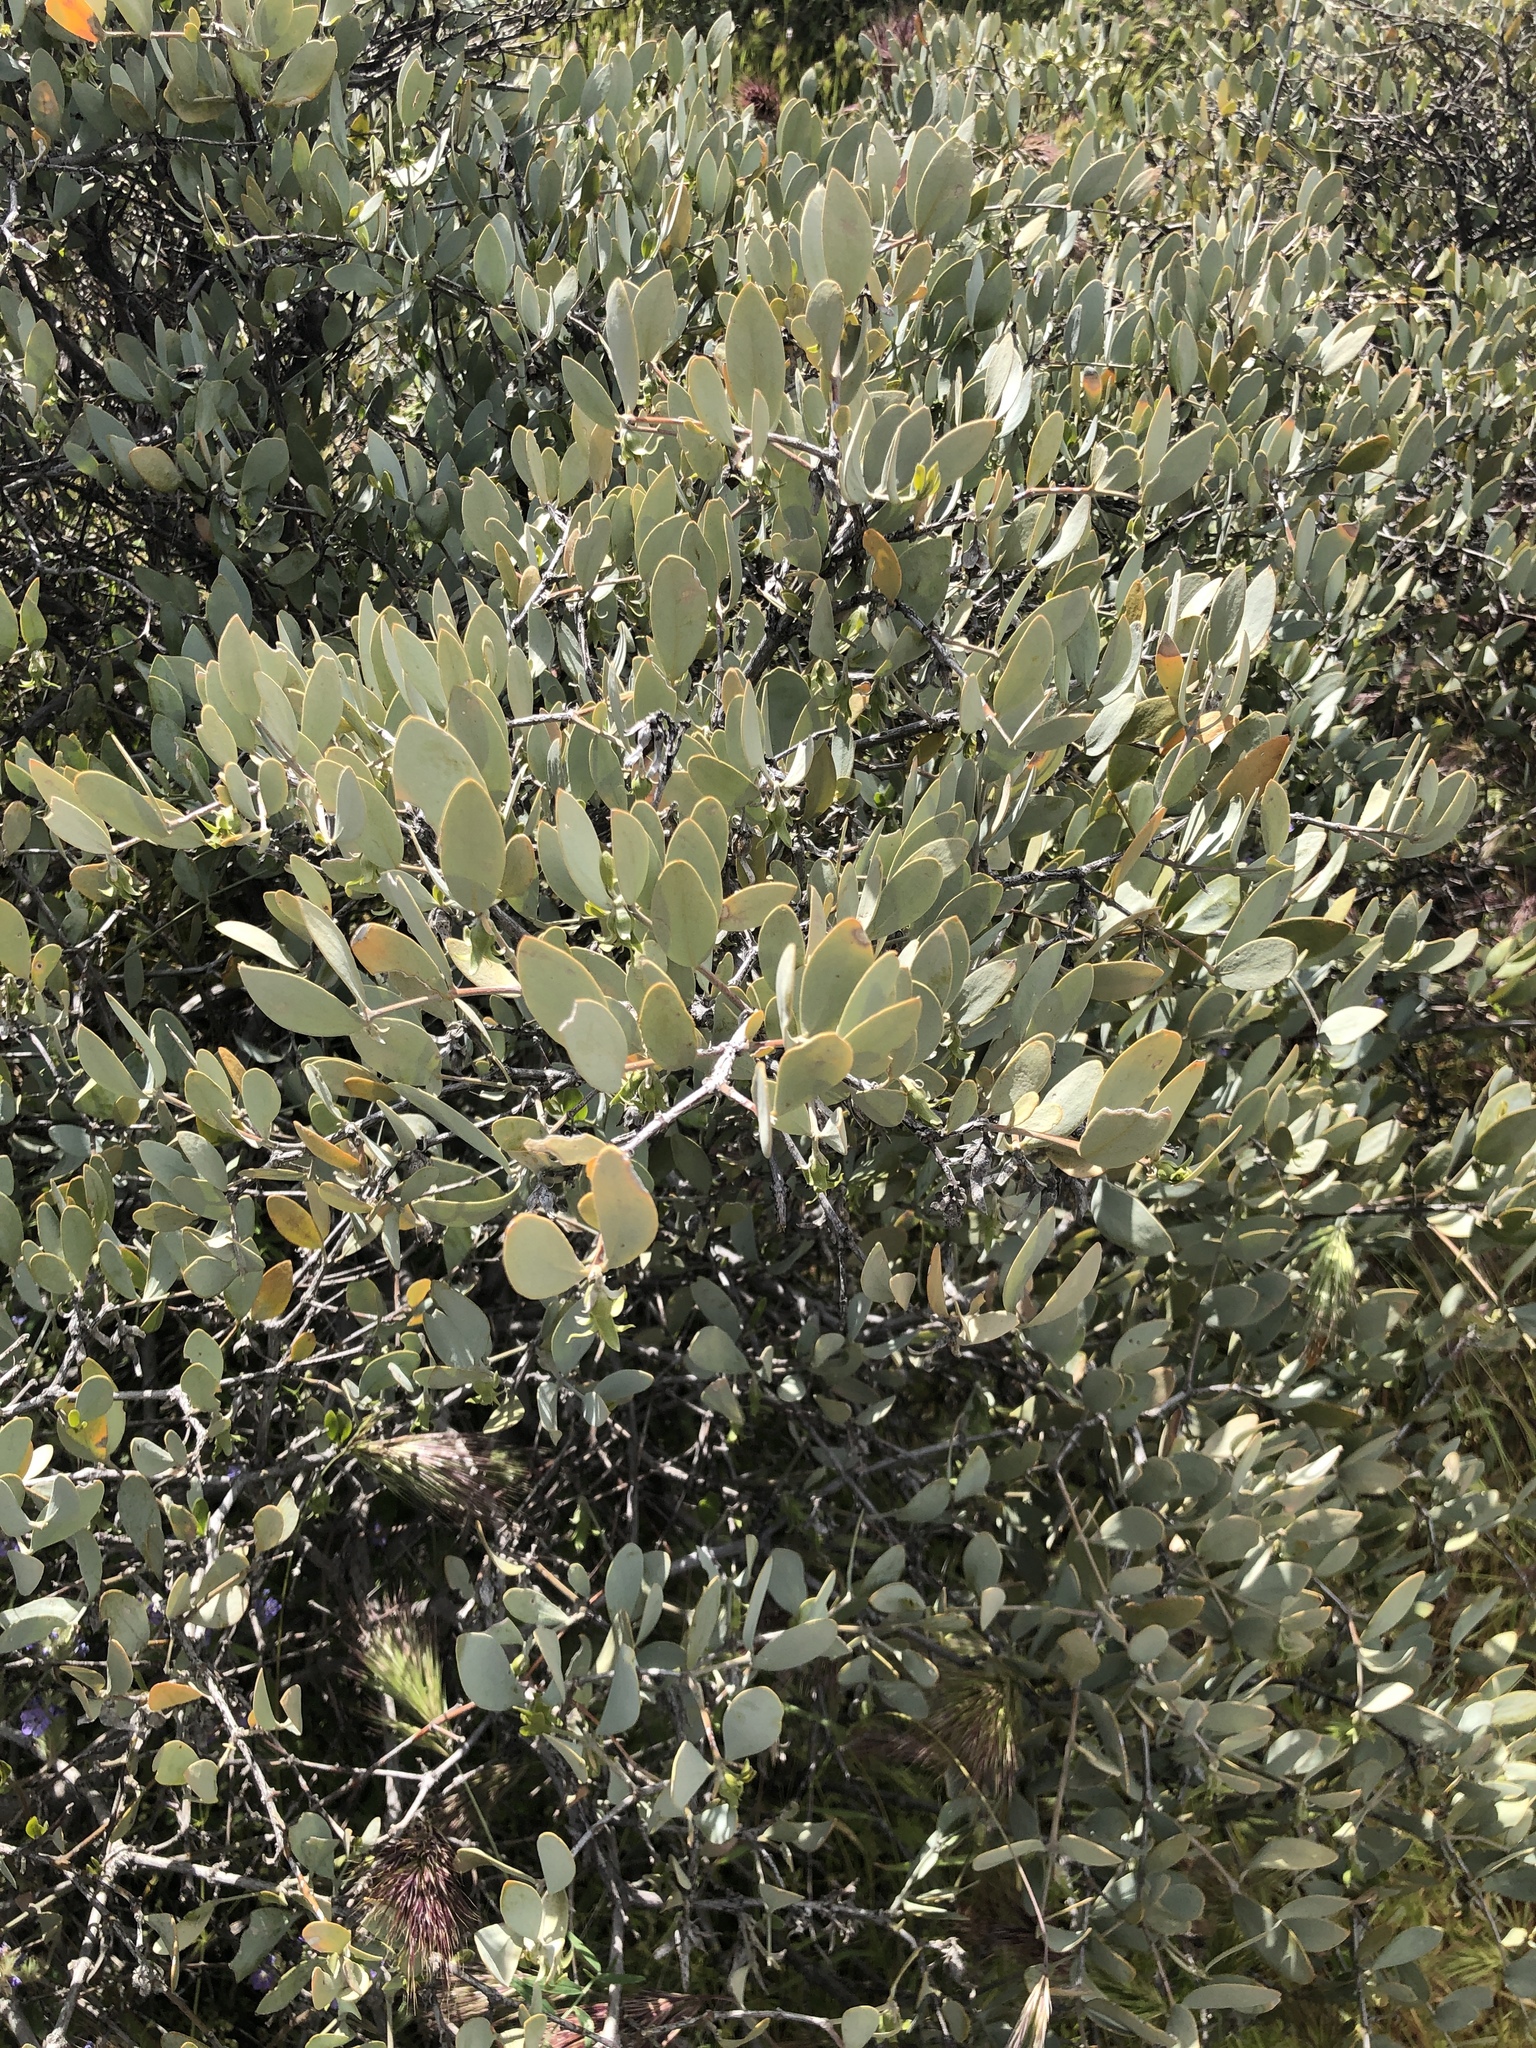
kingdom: Plantae
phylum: Tracheophyta
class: Magnoliopsida
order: Caryophyllales
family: Simmondsiaceae
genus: Simmondsia
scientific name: Simmondsia chinensis
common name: Jojoba
